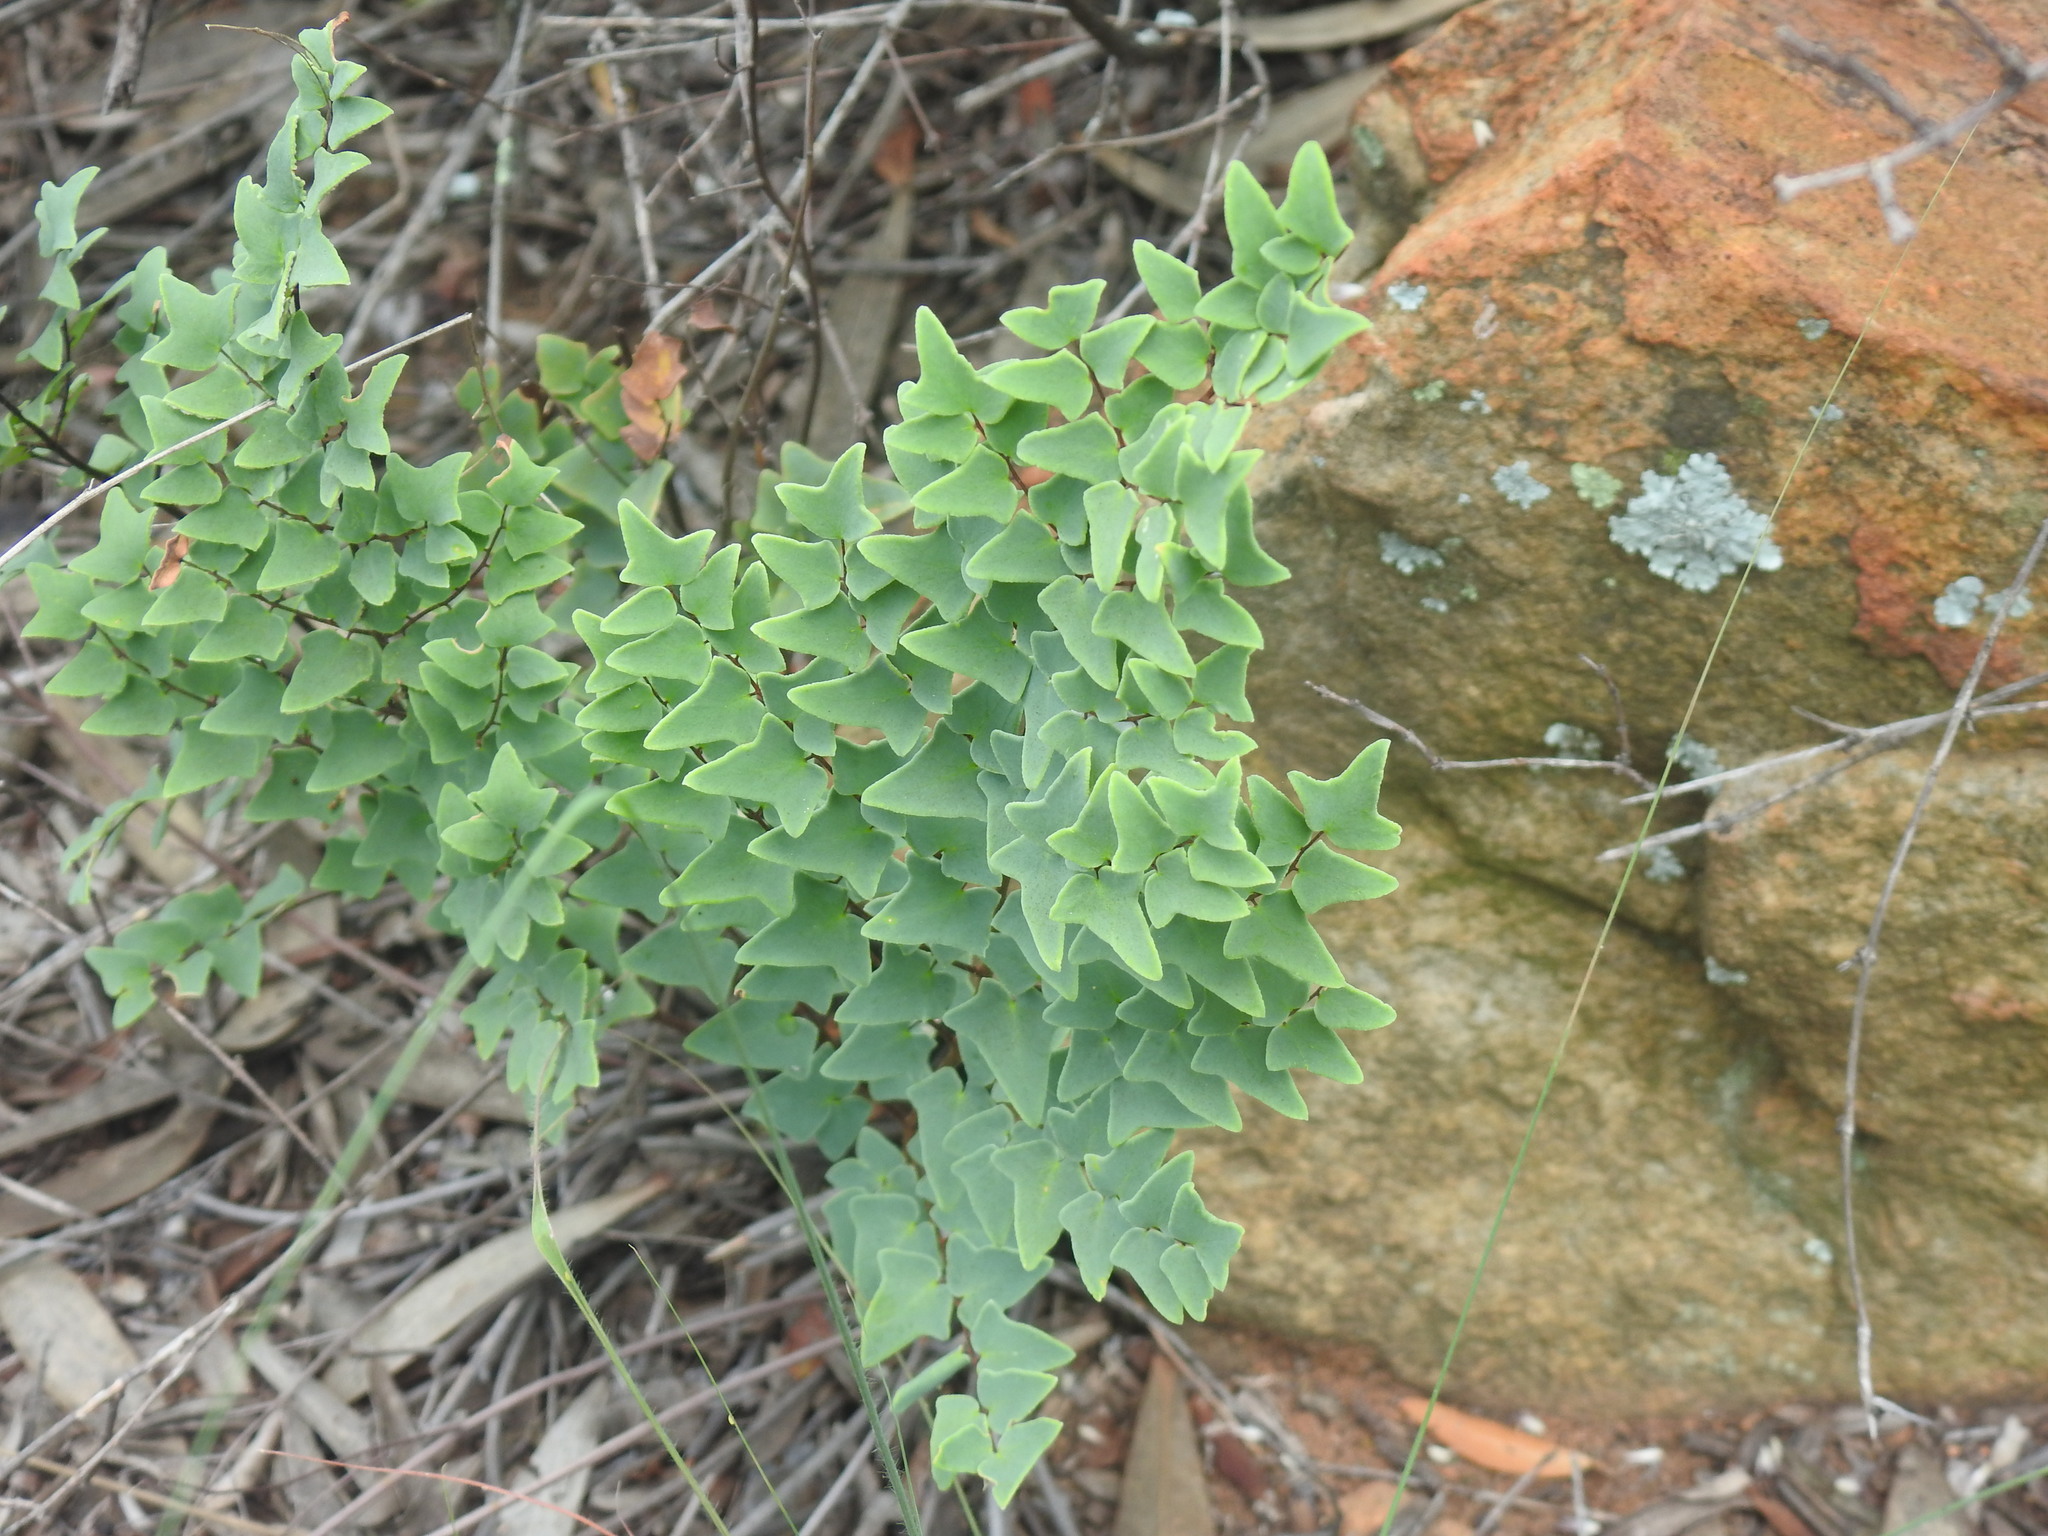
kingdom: Plantae
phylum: Tracheophyta
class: Polypodiopsida
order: Polypodiales
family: Pteridaceae
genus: Pellaea
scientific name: Pellaea calomelanos
